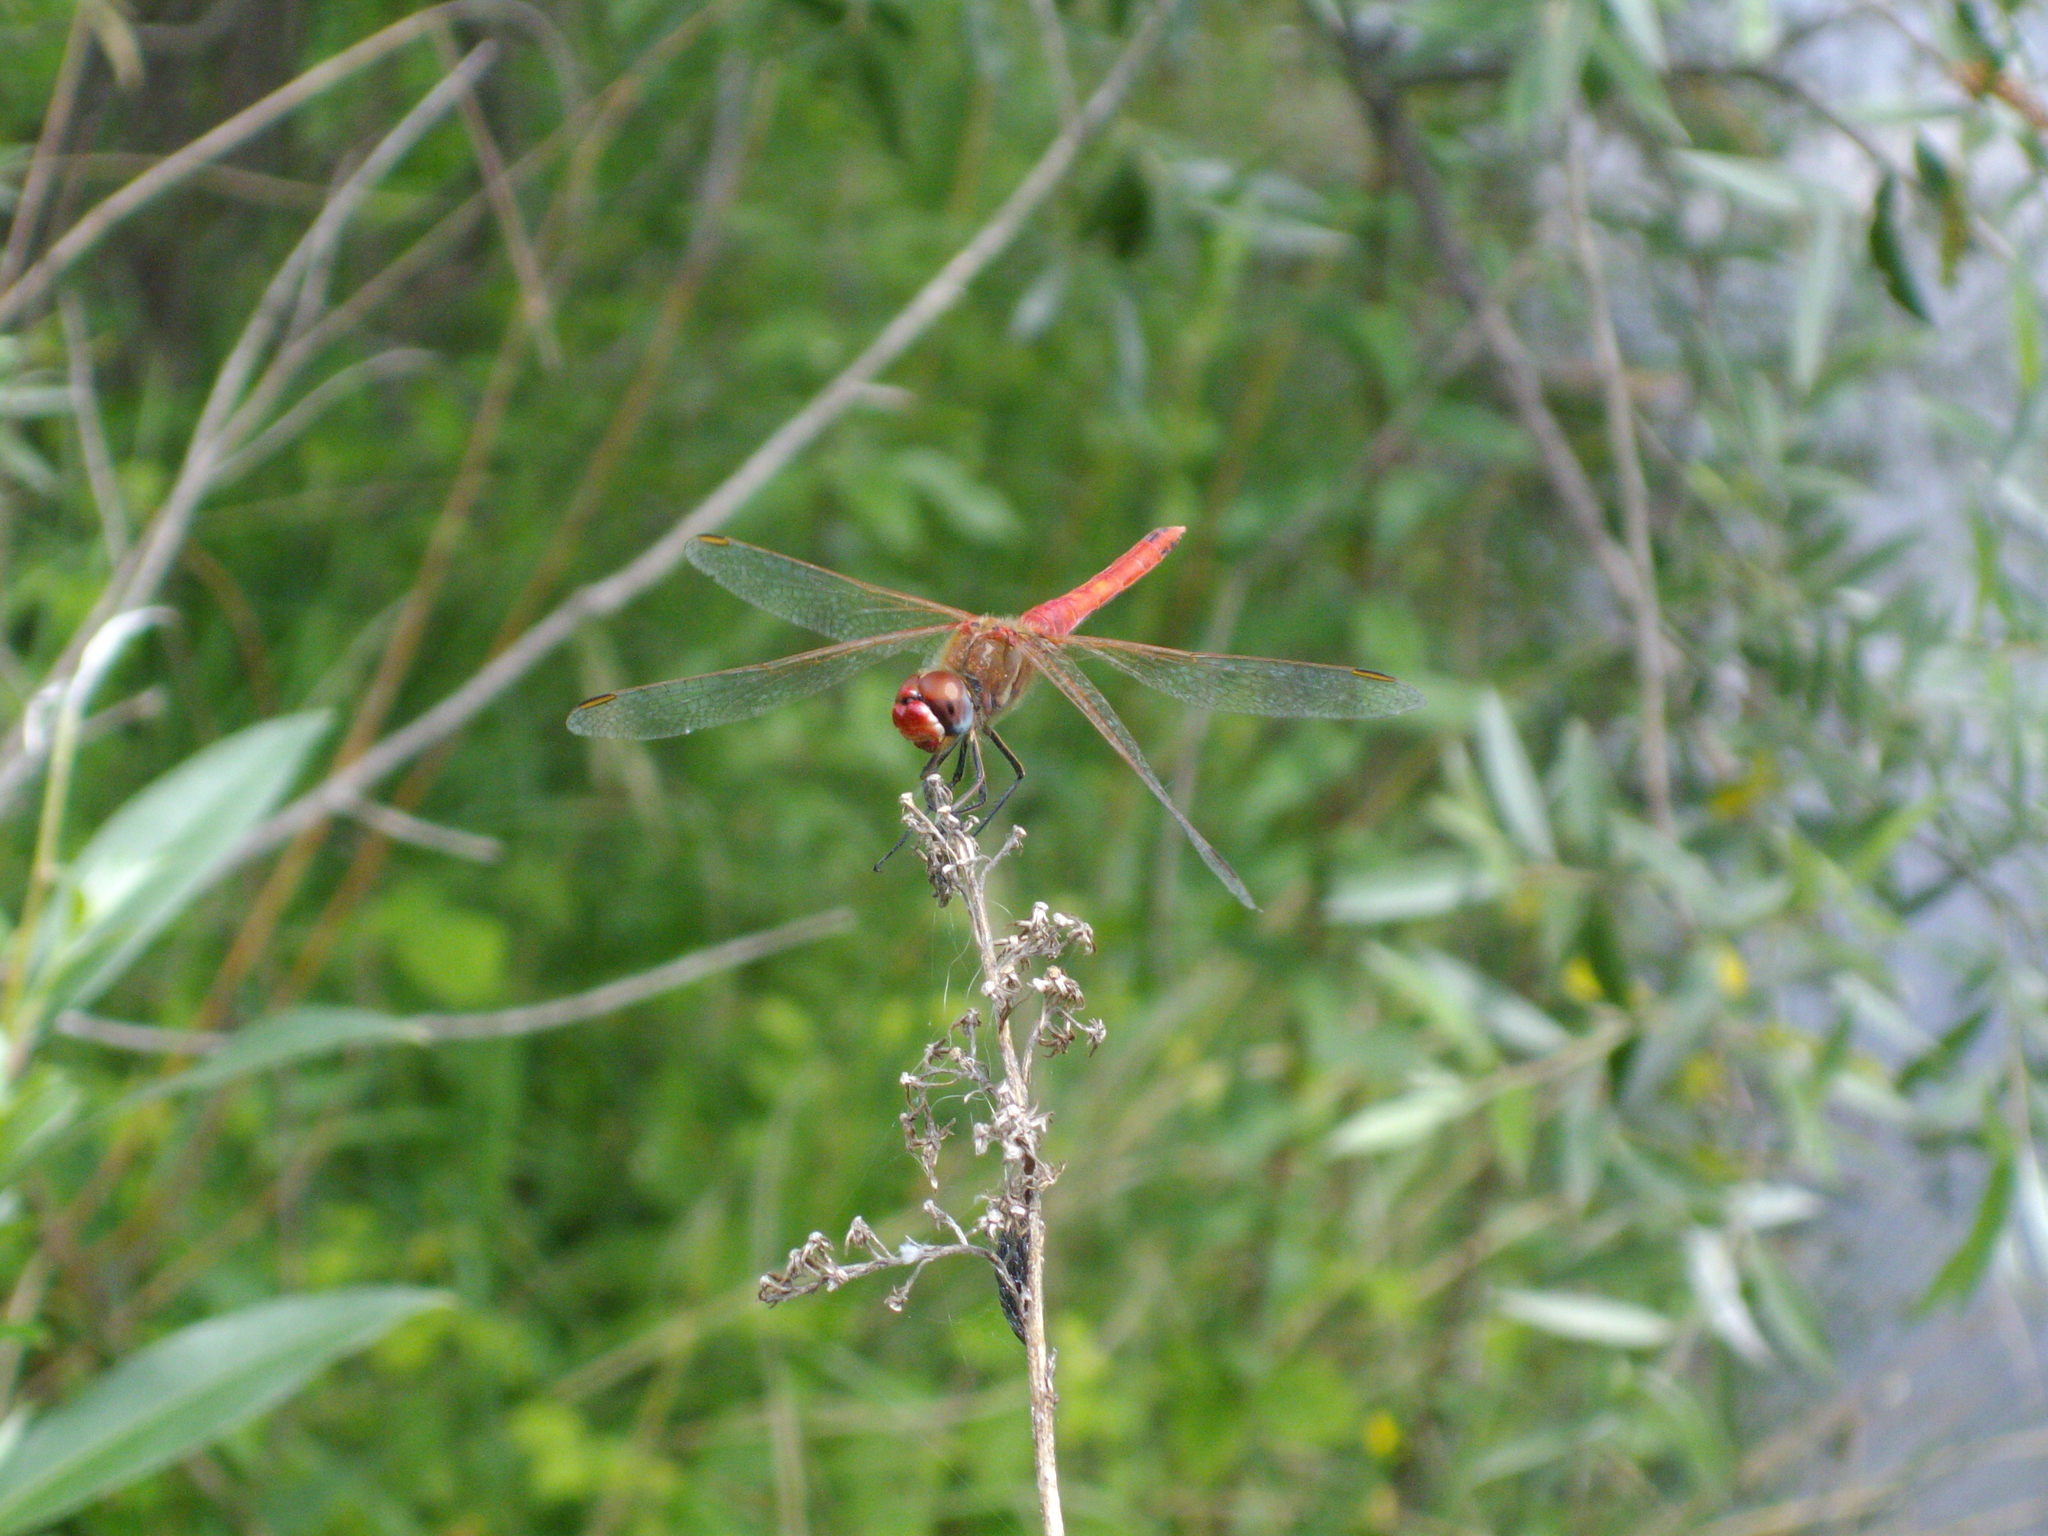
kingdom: Animalia
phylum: Arthropoda
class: Insecta
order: Odonata
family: Libellulidae
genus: Sympetrum
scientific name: Sympetrum fonscolombii
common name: Red-veined darter
